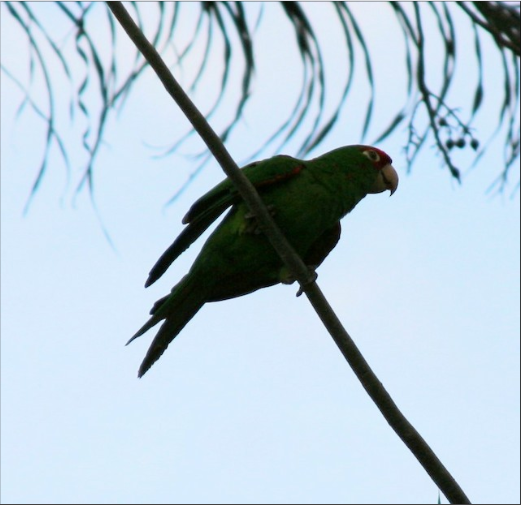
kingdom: Animalia
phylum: Chordata
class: Aves
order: Psittaciformes
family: Psittacidae
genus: Aratinga
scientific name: Aratinga mitrata
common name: Mitred parakeet
